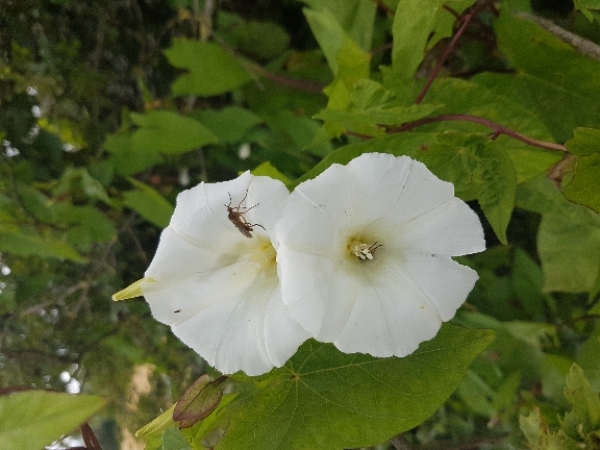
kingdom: Plantae
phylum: Tracheophyta
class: Magnoliopsida
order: Solanales
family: Convolvulaceae
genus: Calystegia
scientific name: Calystegia sepium
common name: Hedge bindweed
